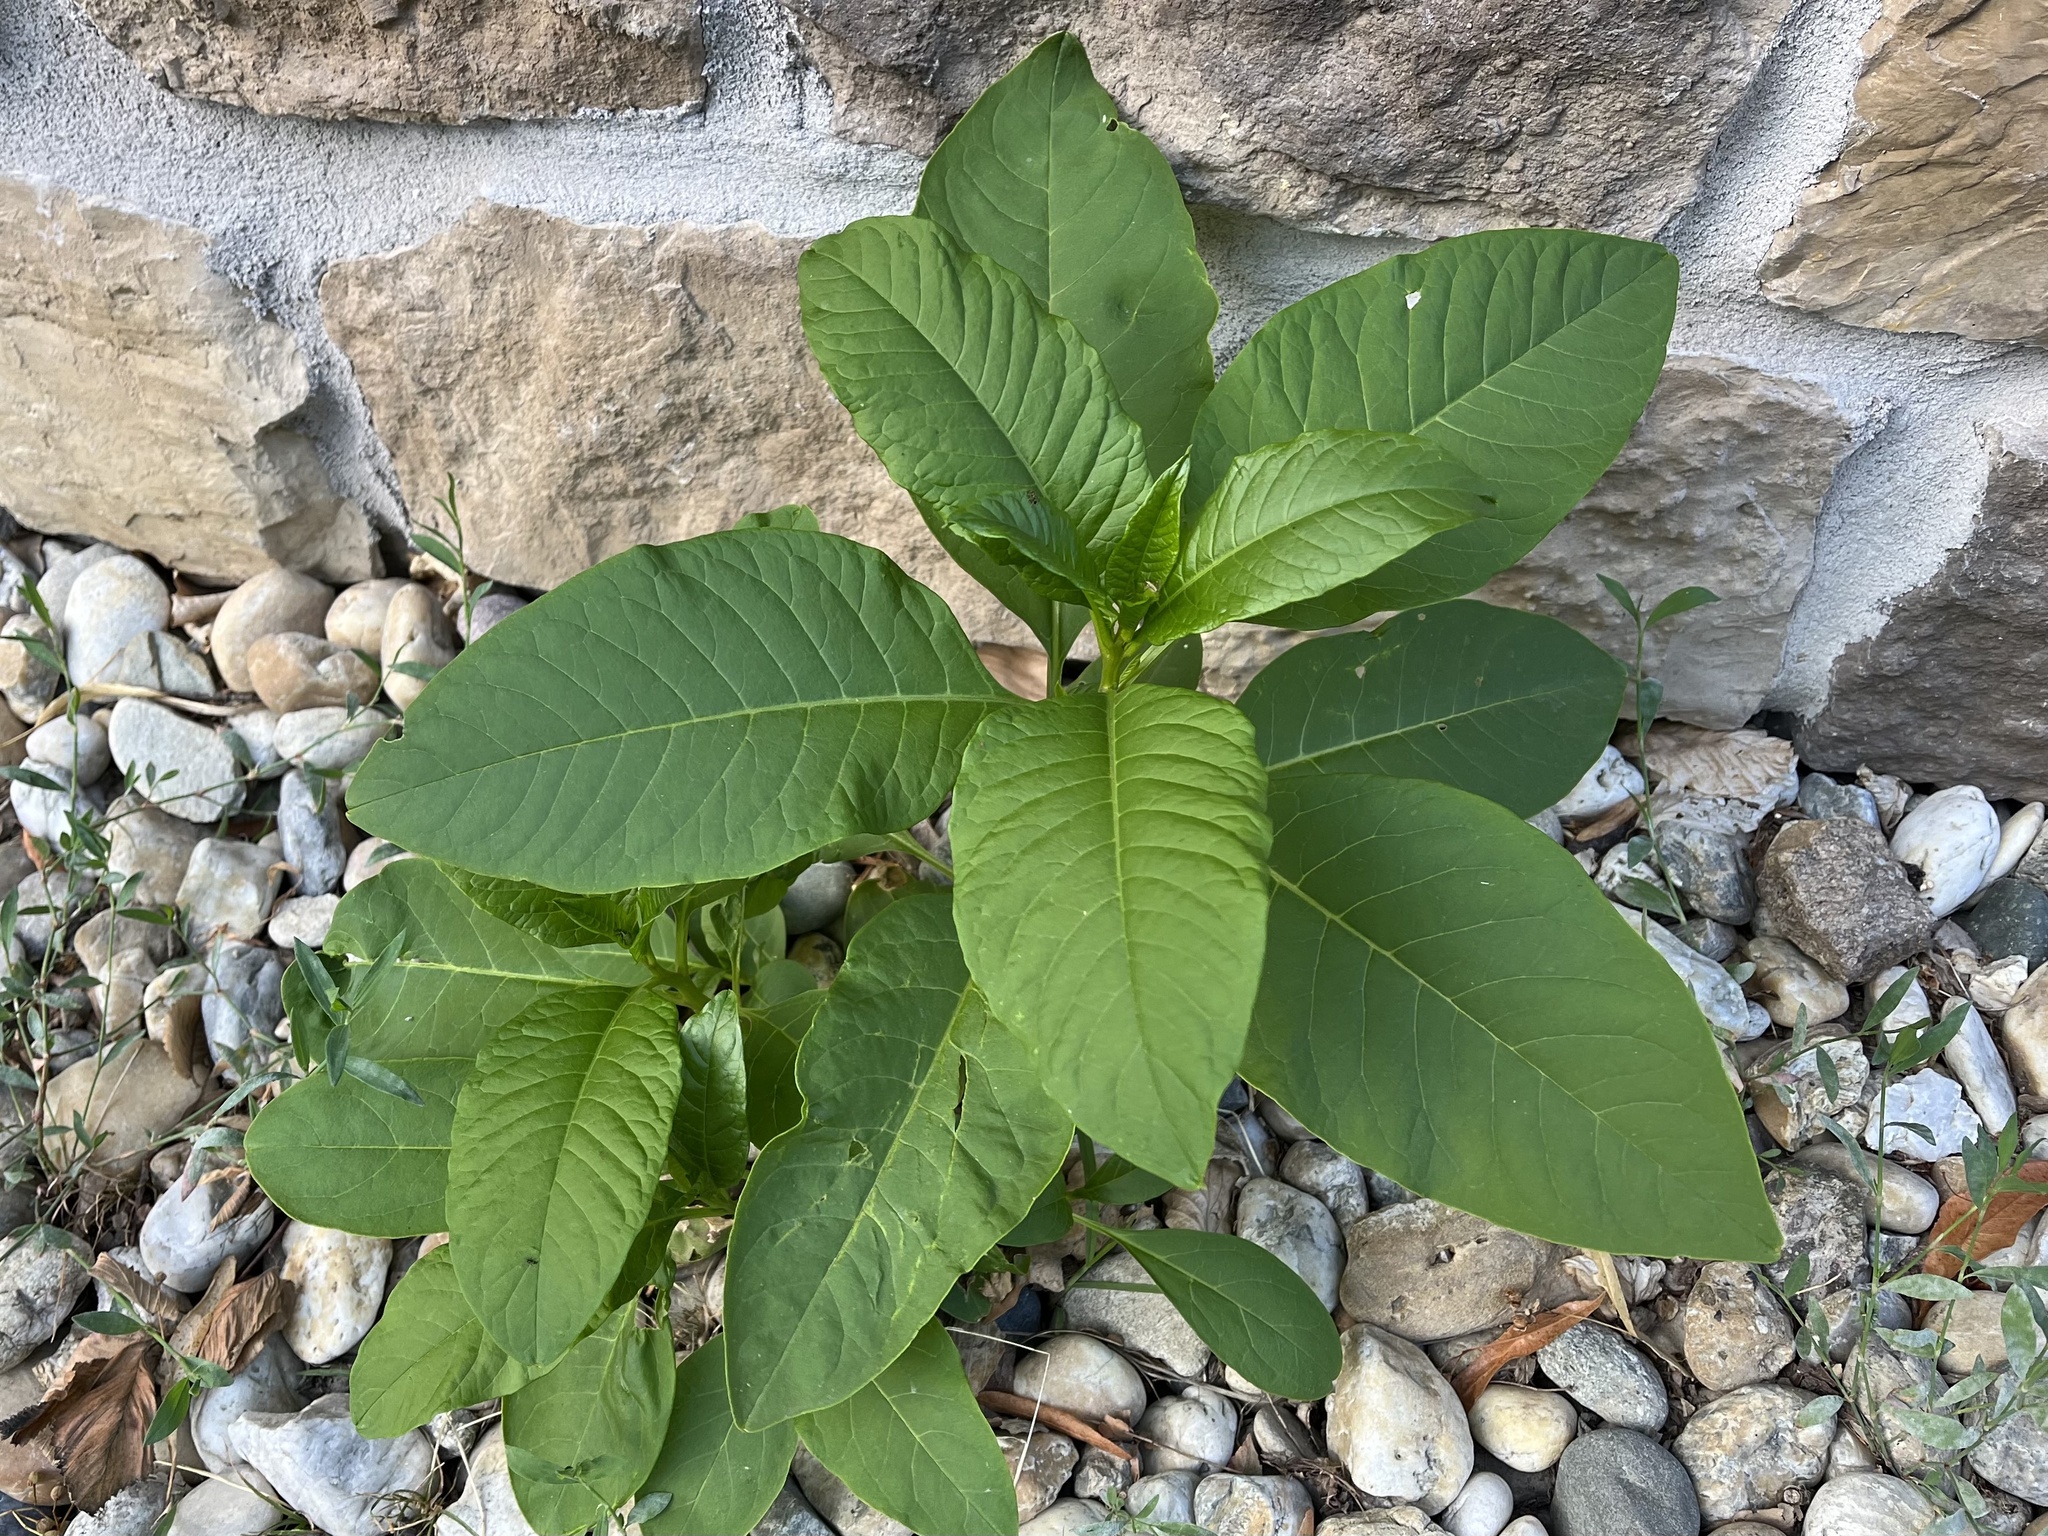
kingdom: Plantae
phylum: Tracheophyta
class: Magnoliopsida
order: Caryophyllales
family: Phytolaccaceae
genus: Phytolacca
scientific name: Phytolacca americana
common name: American pokeweed
